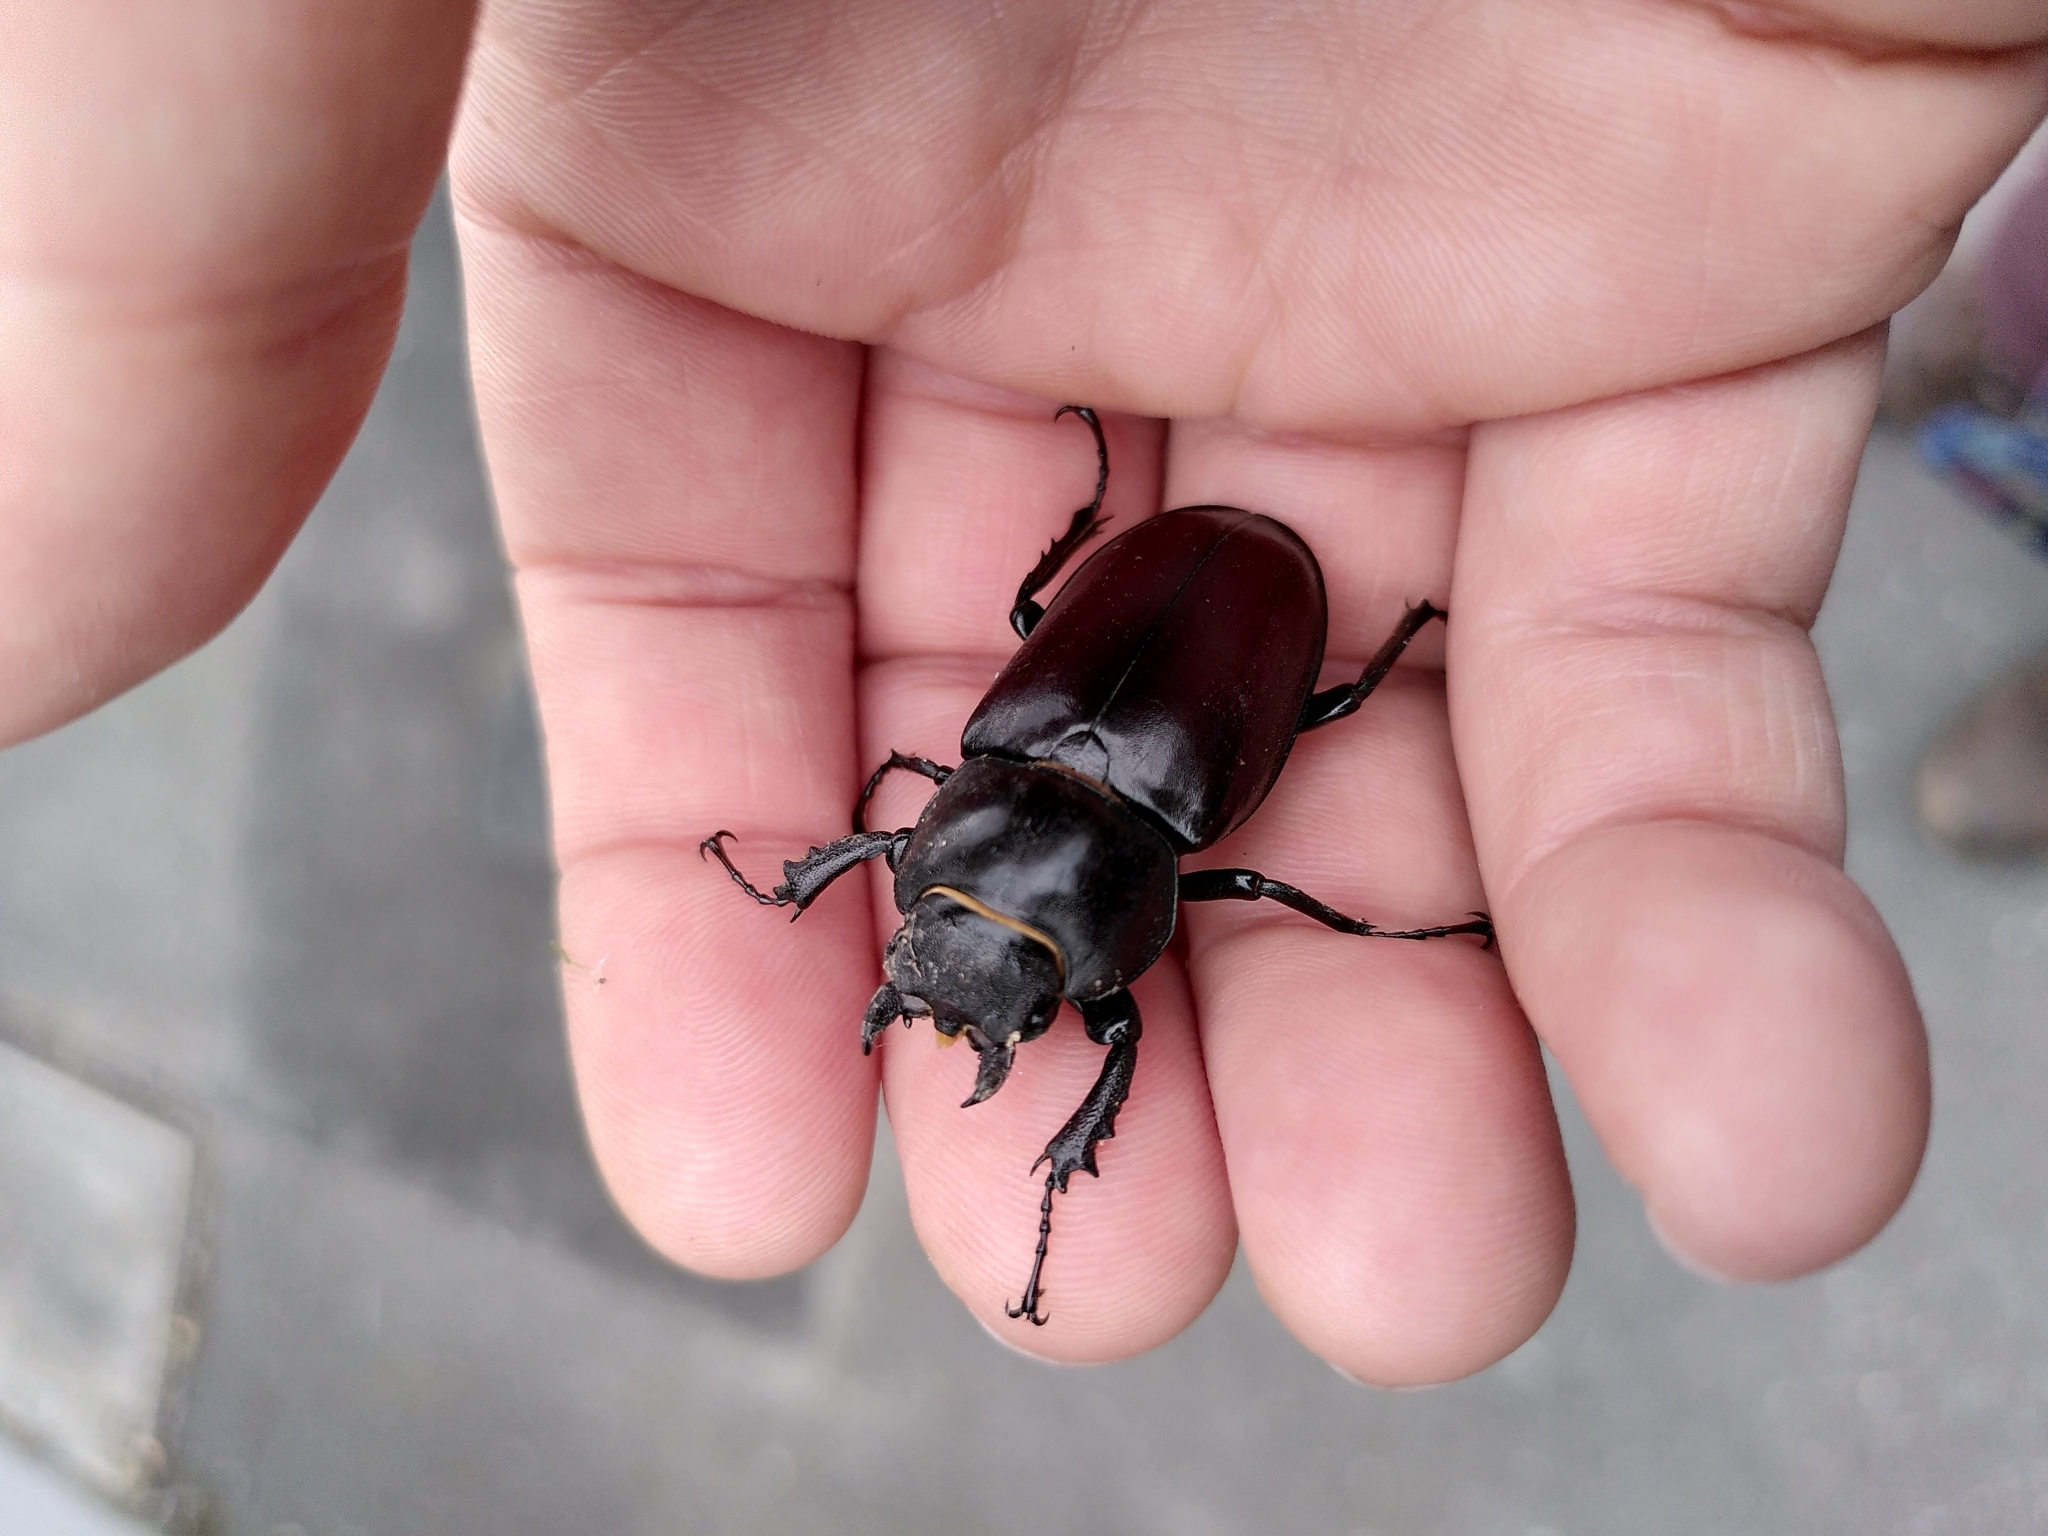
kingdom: Animalia
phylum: Arthropoda
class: Insecta
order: Coleoptera
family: Lucanidae
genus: Lucanus
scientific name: Lucanus cervus
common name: Stag beetle
